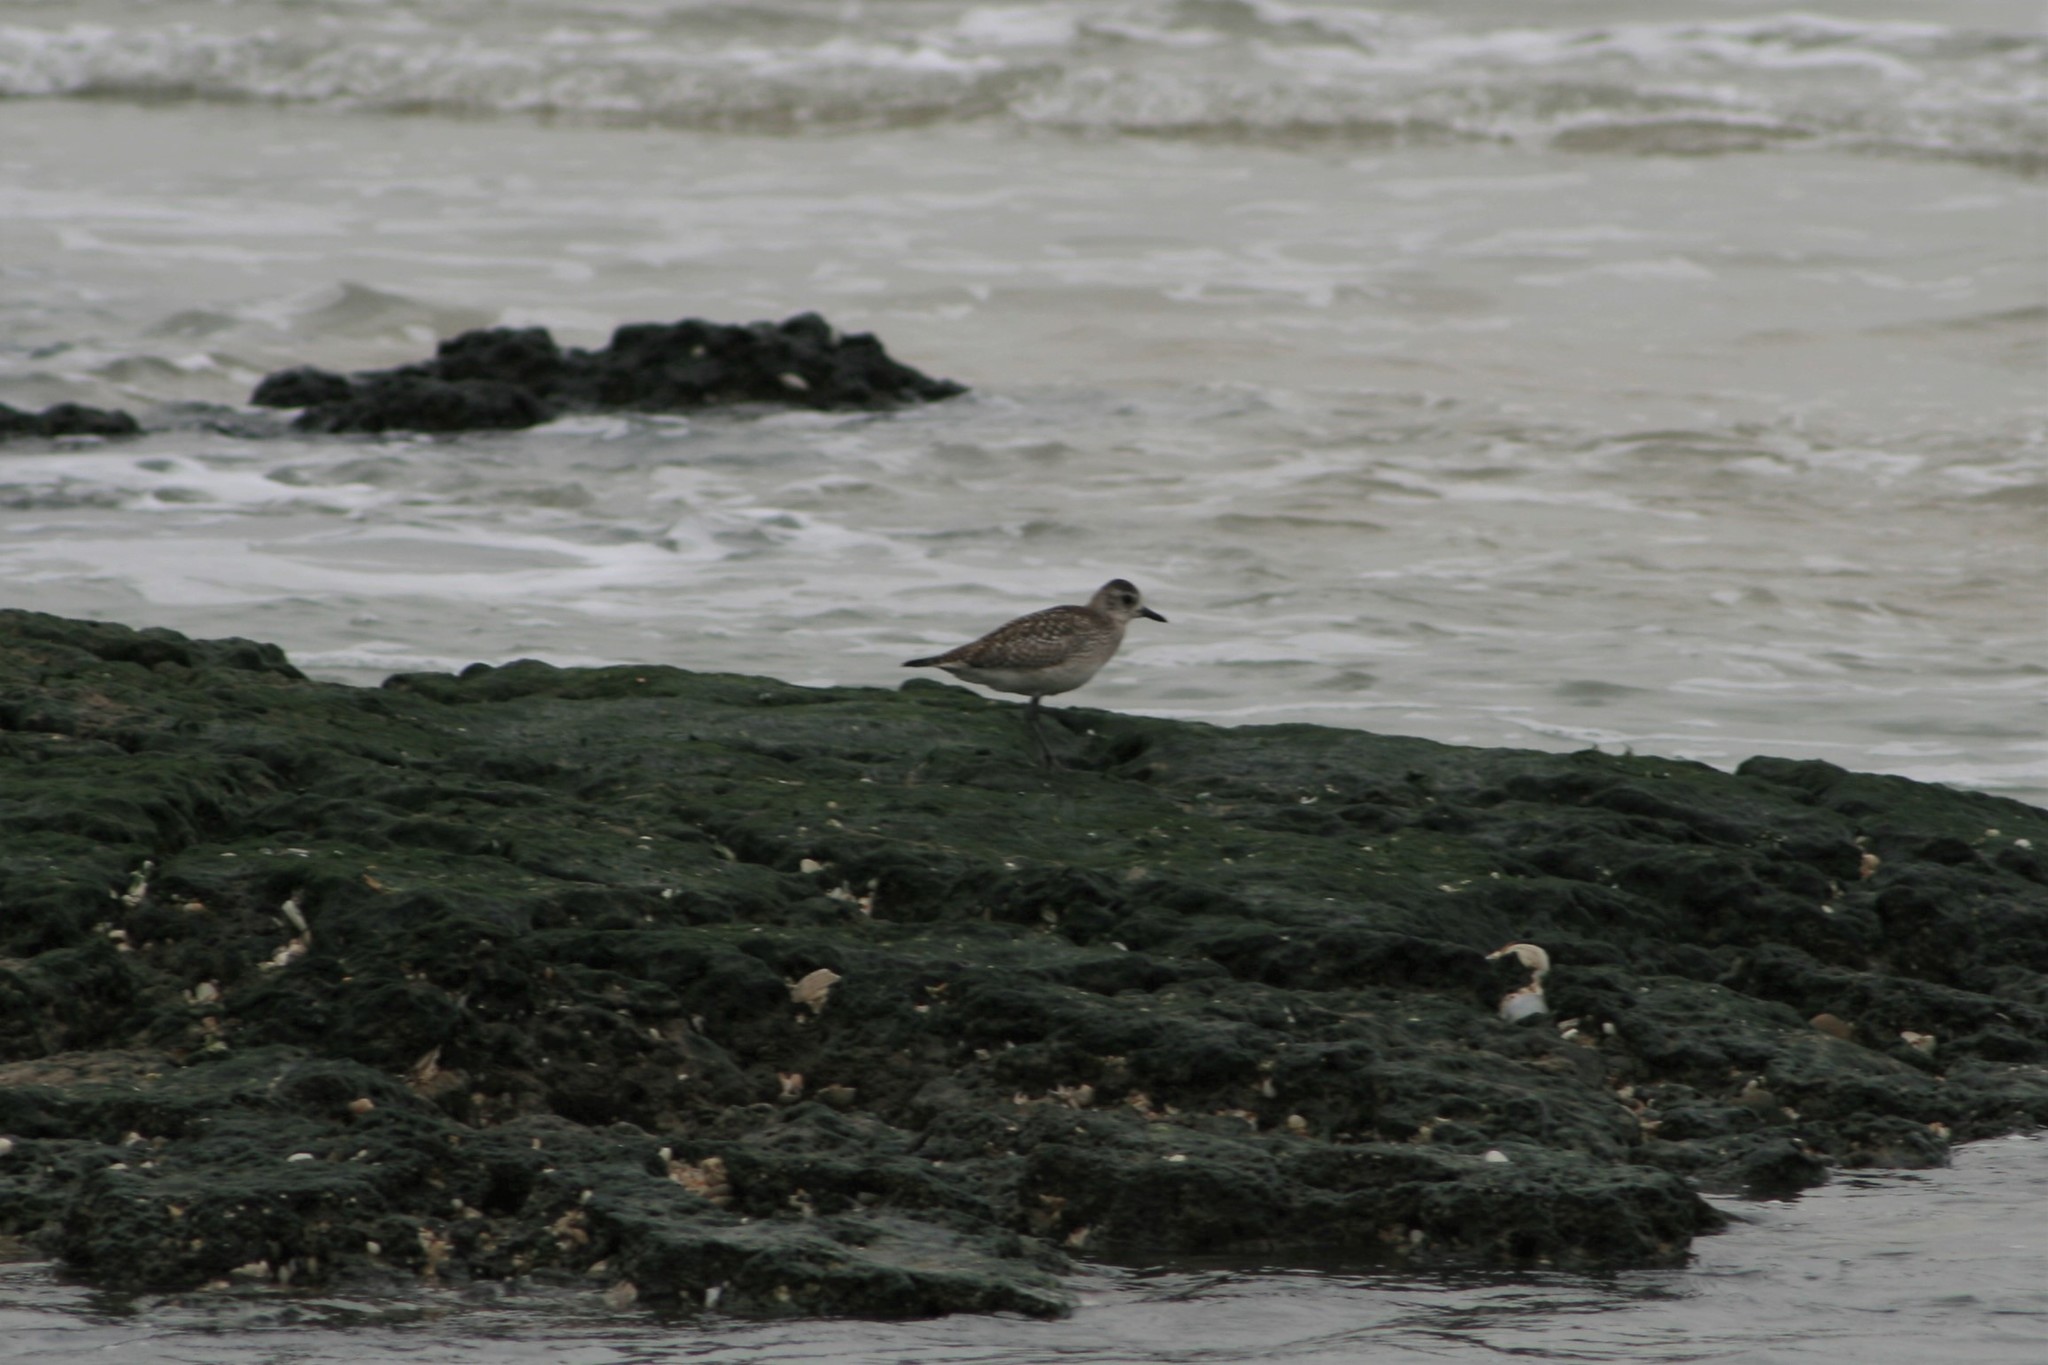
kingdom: Animalia
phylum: Chordata
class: Aves
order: Charadriiformes
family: Charadriidae
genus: Pluvialis
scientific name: Pluvialis squatarola
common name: Grey plover
